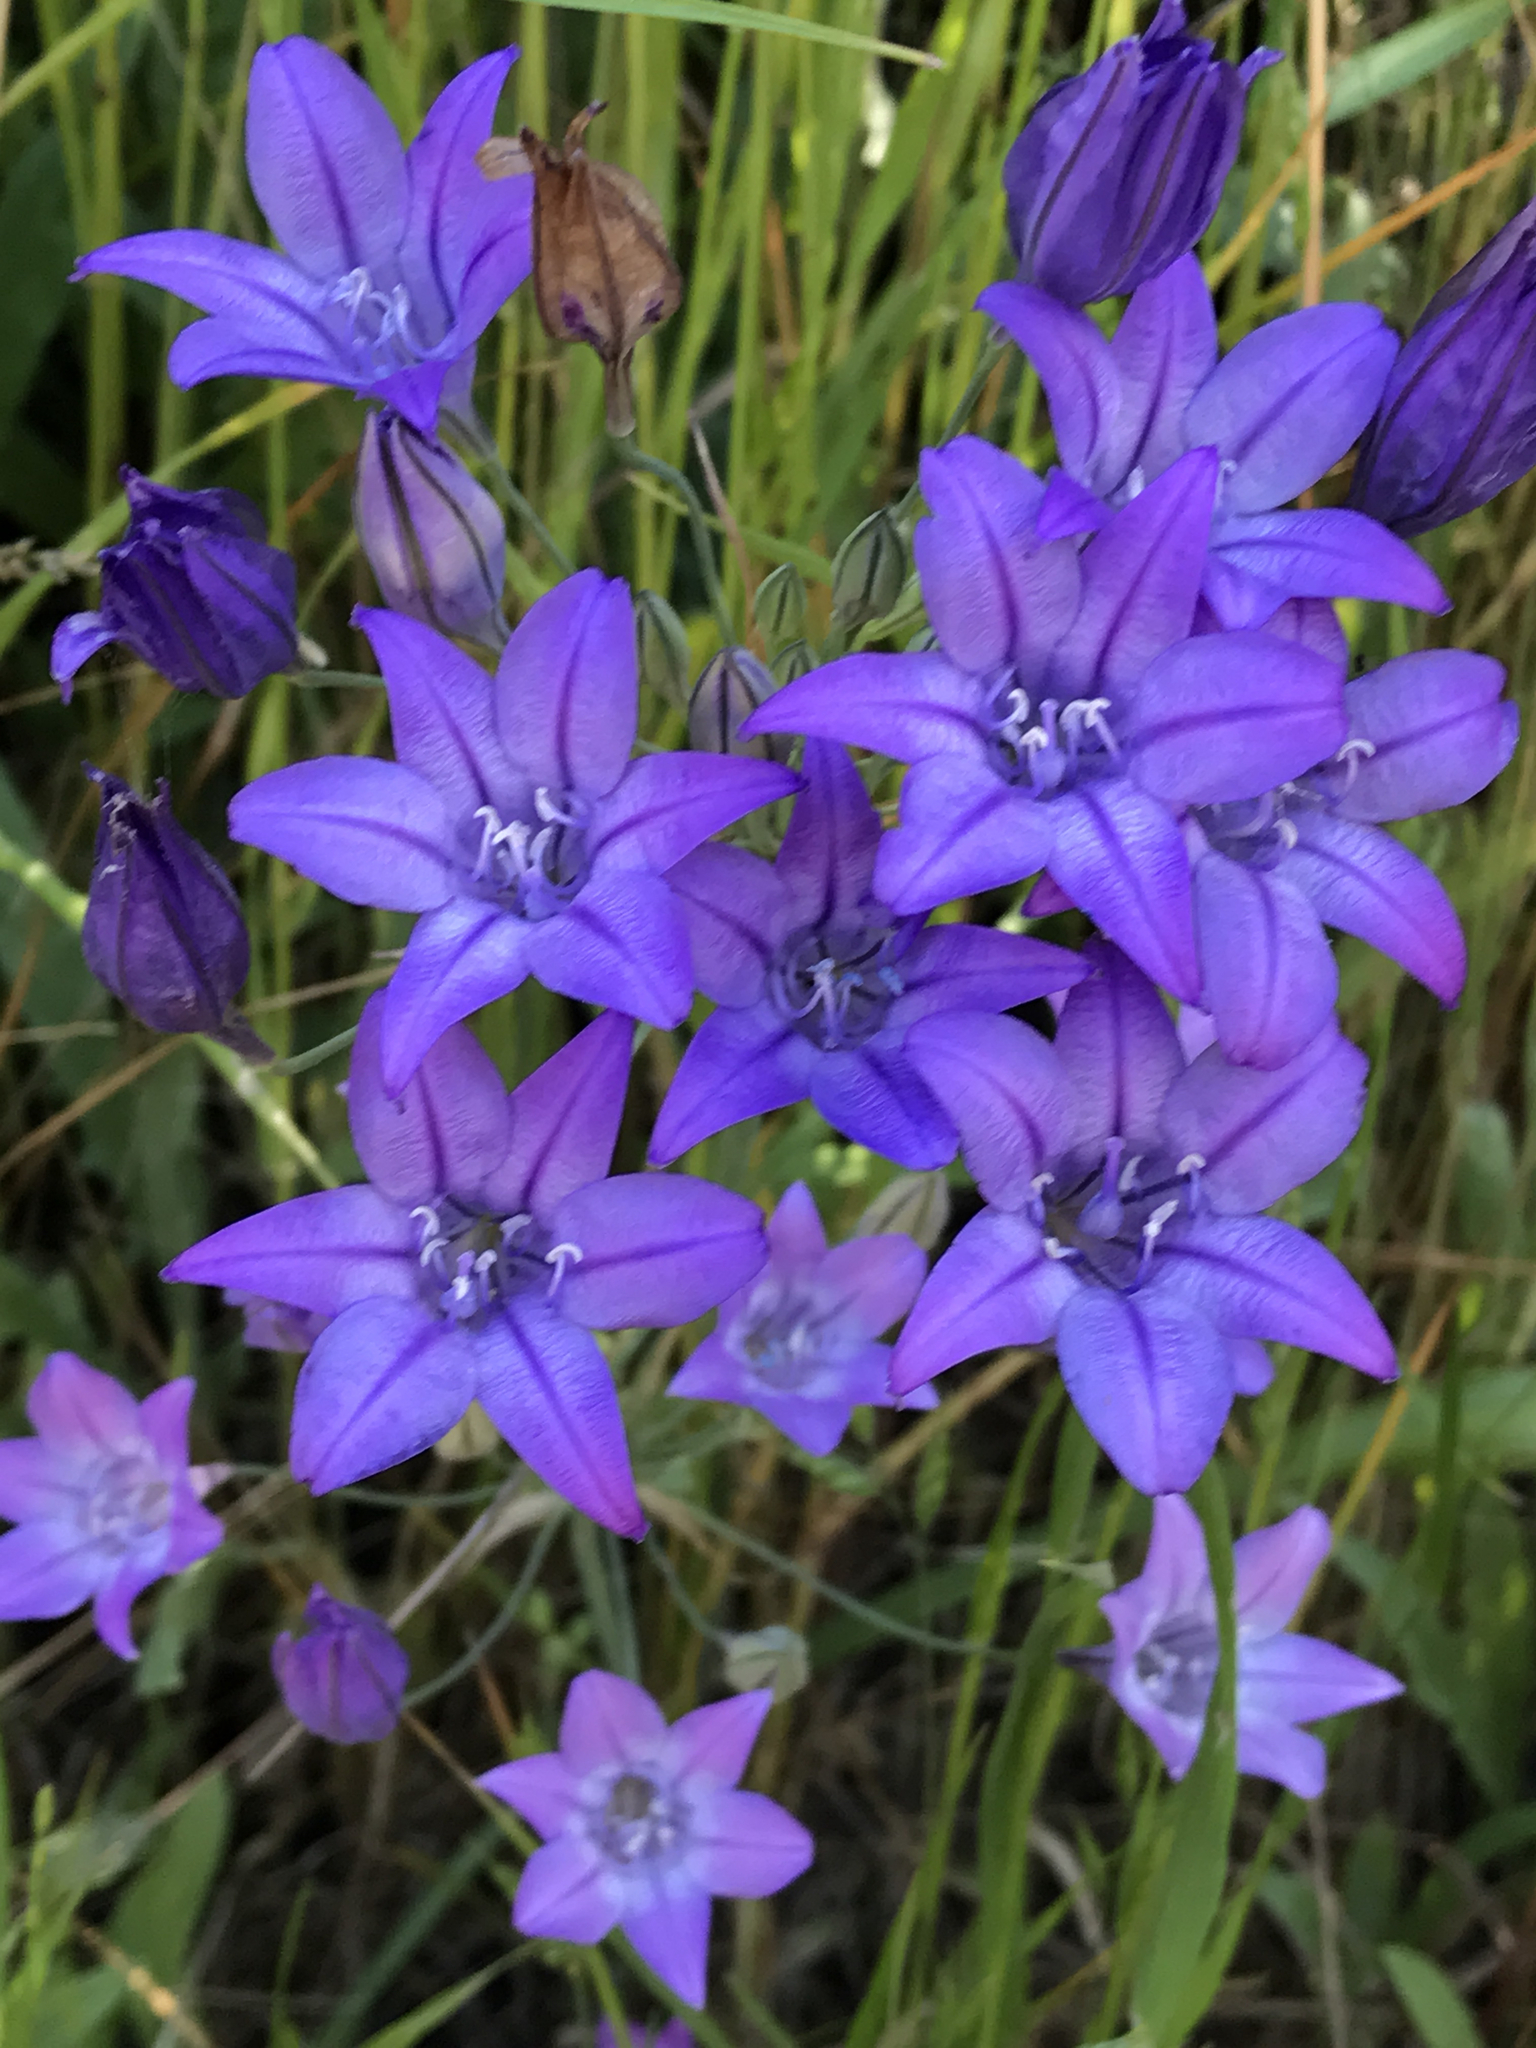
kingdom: Plantae
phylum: Tracheophyta
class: Liliopsida
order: Asparagales
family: Asparagaceae
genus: Triteleia
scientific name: Triteleia laxa
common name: Triplet-lily
